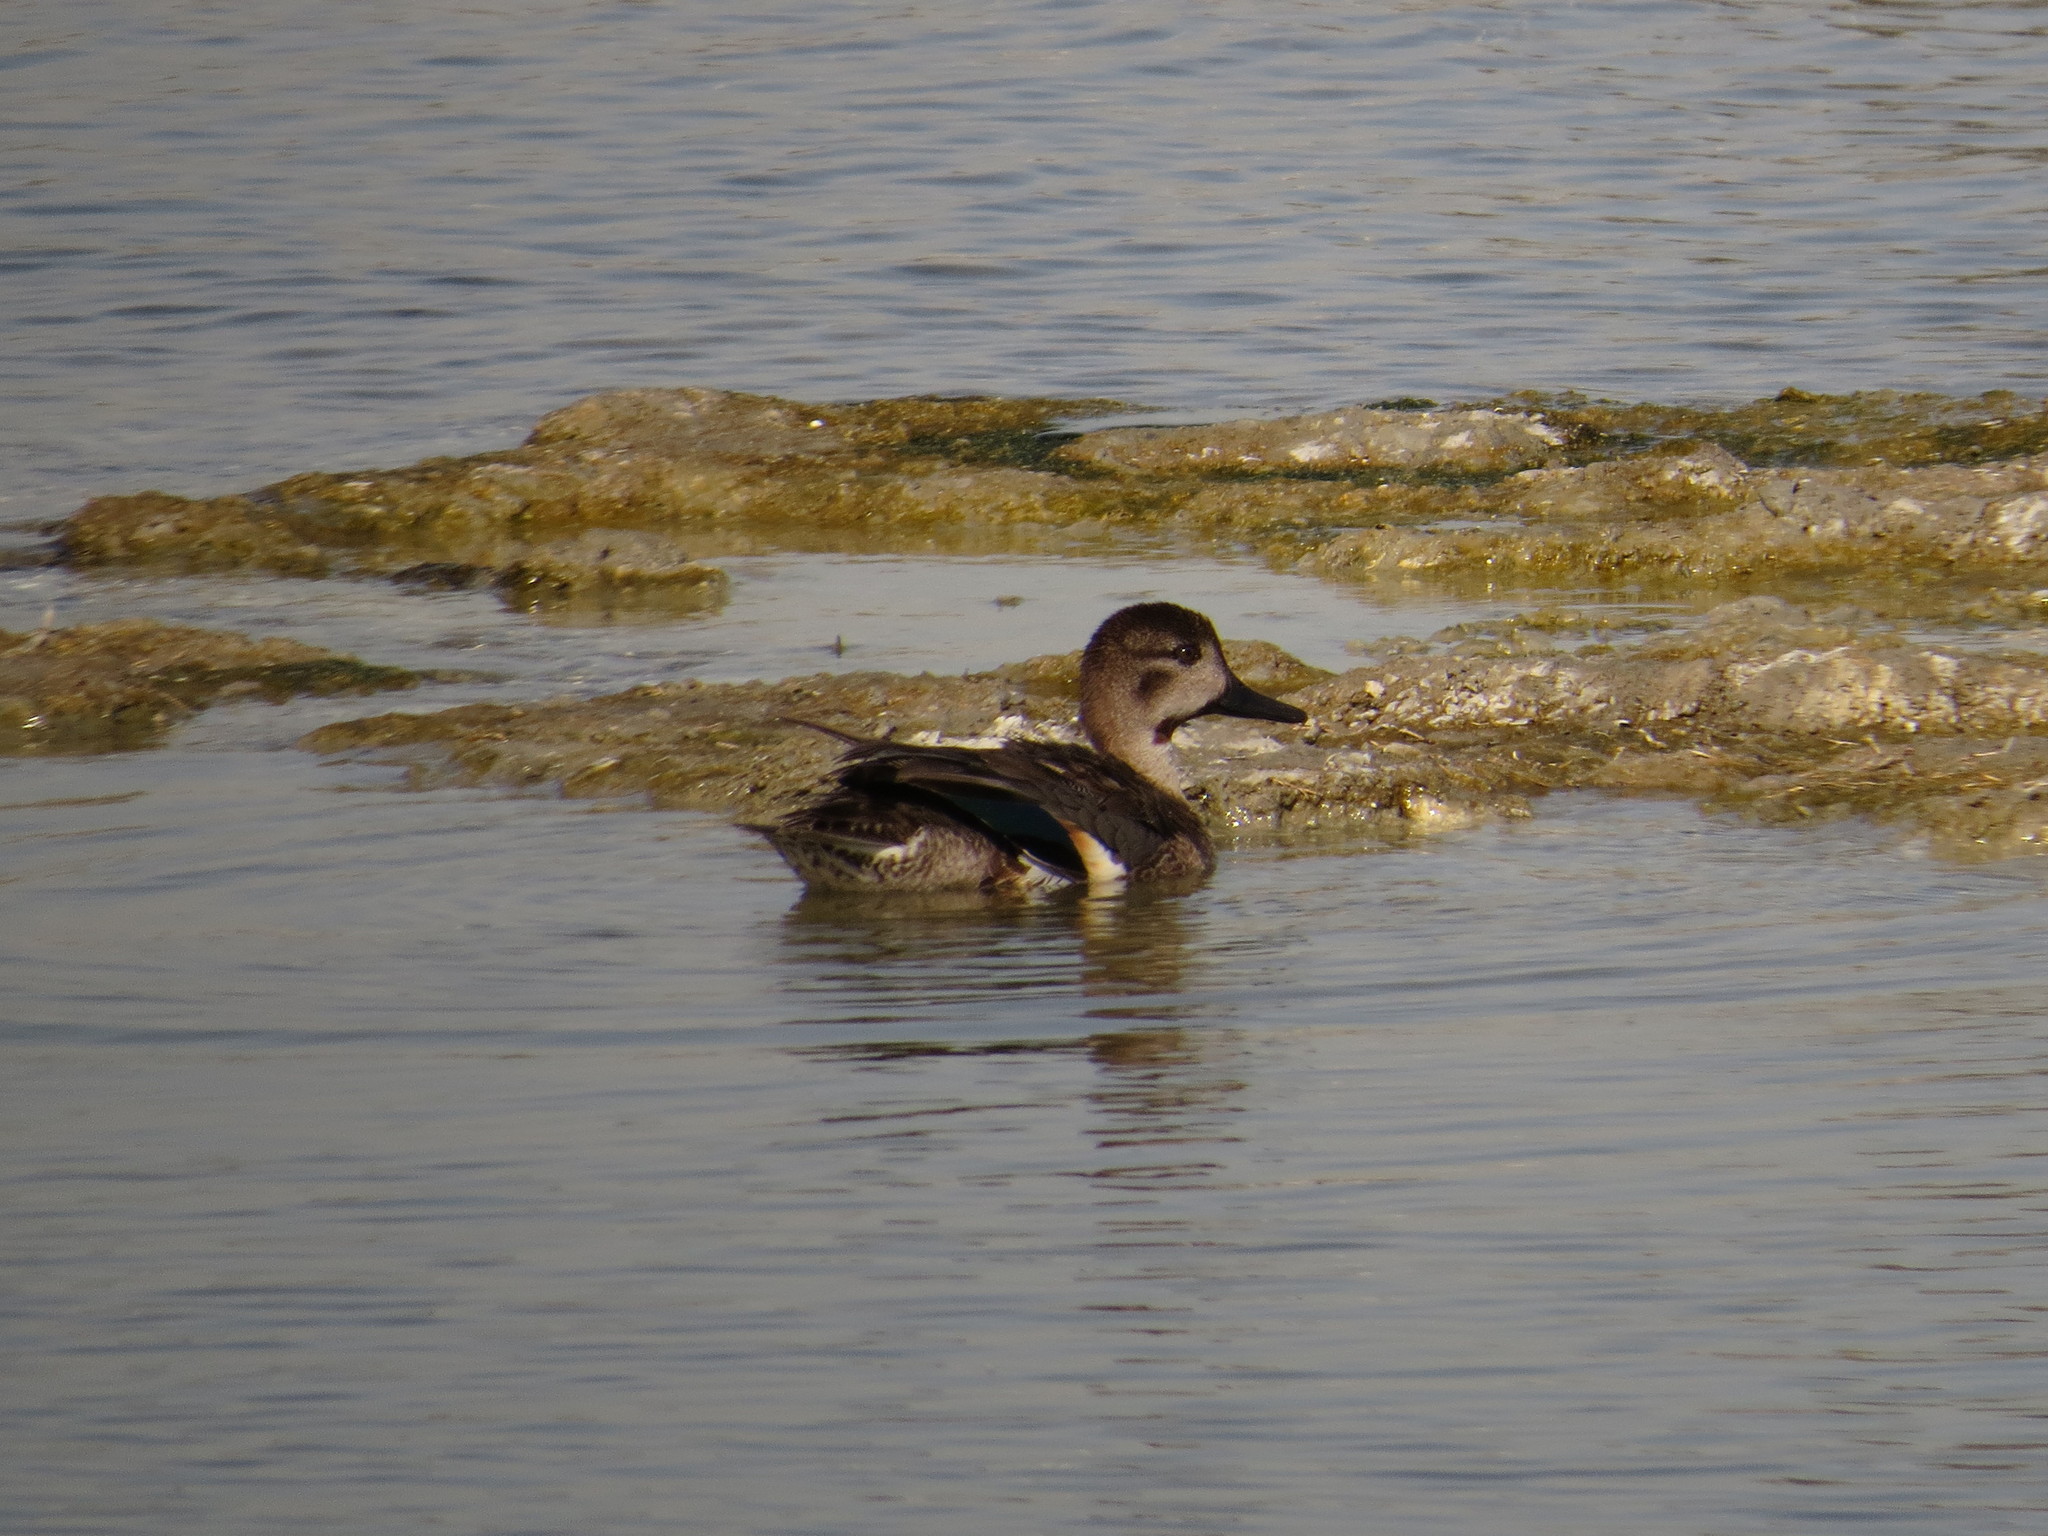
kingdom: Animalia
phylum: Chordata
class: Aves
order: Anseriformes
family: Anatidae
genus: Anas
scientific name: Anas crecca
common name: Eurasian teal
